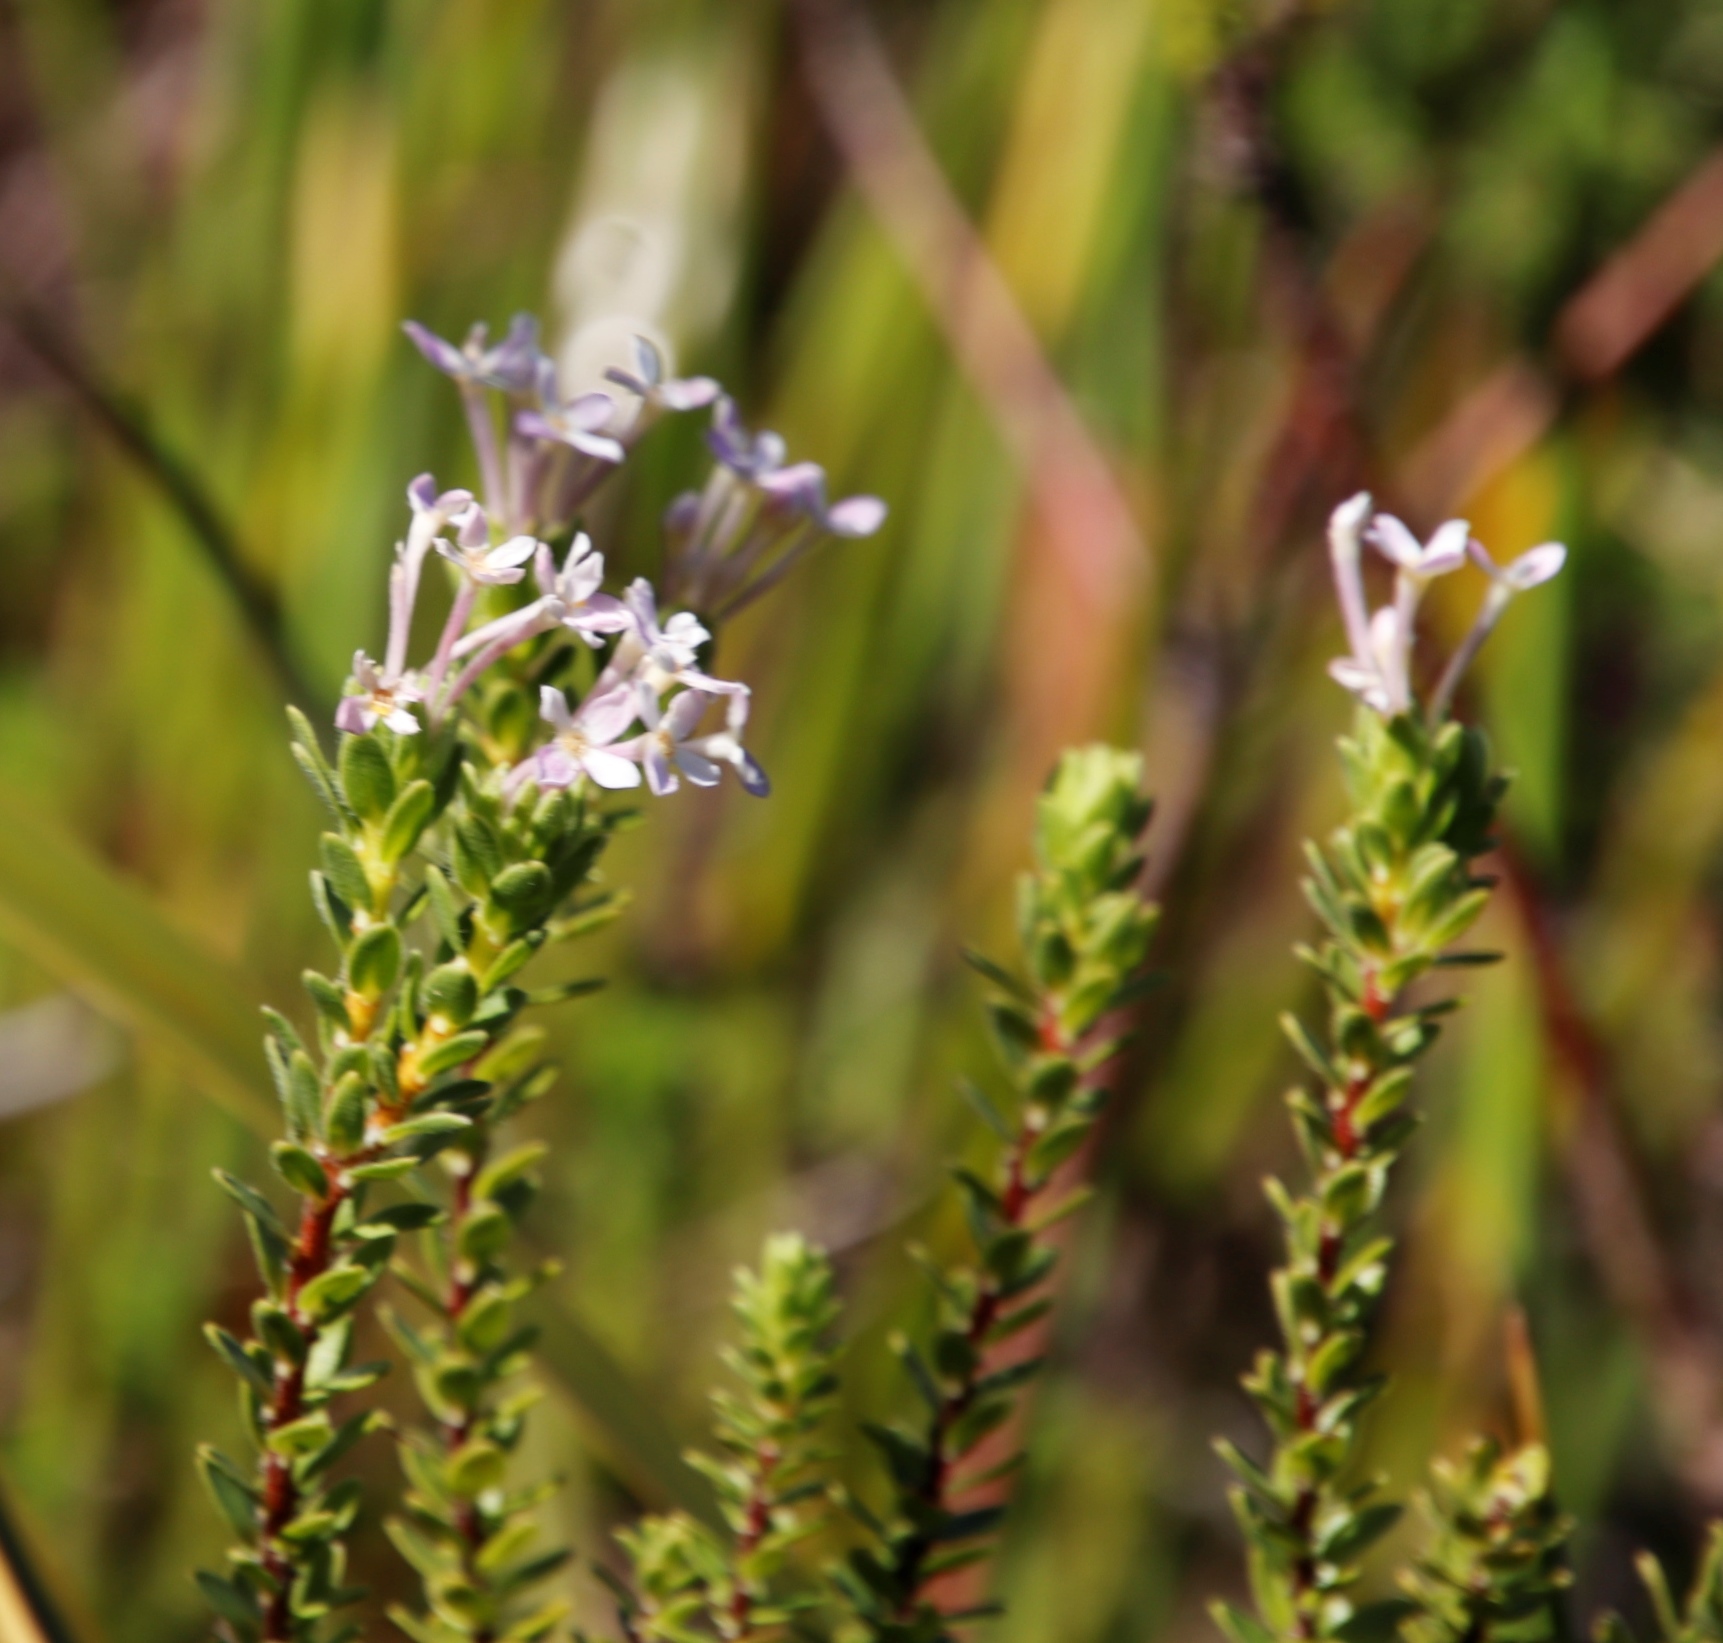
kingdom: Plantae
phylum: Tracheophyta
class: Magnoliopsida
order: Malvales
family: Thymelaeaceae
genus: Gnidia
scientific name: Gnidia tomentosa
